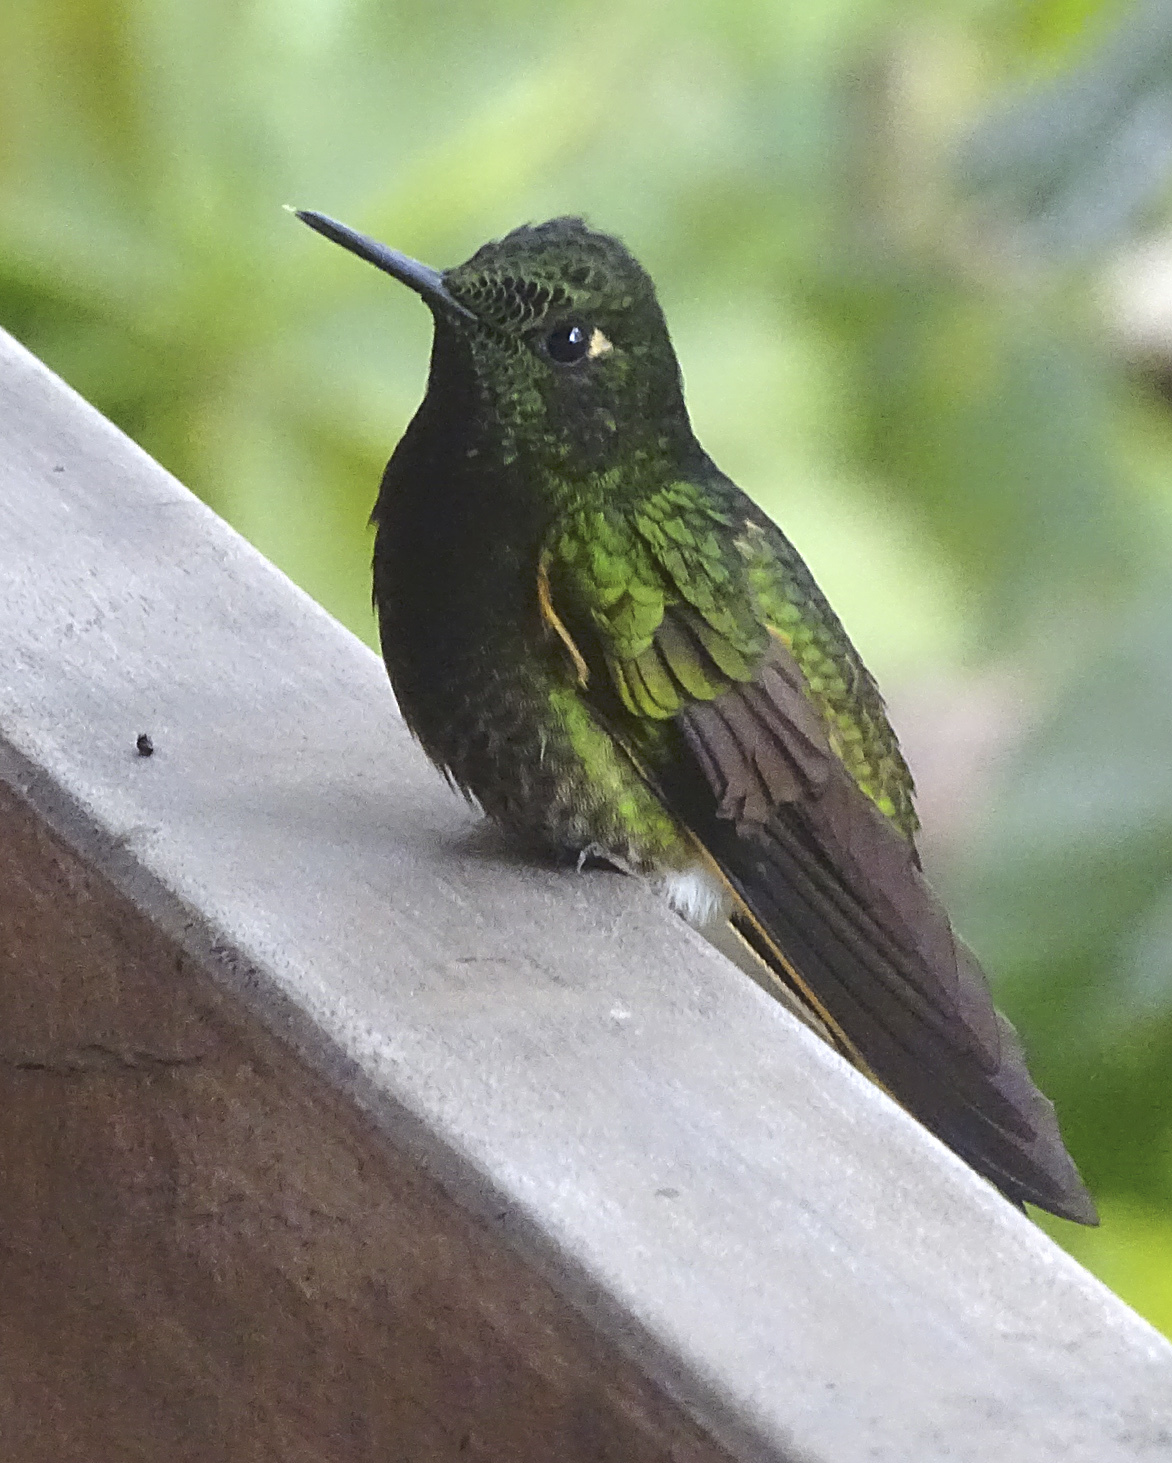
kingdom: Animalia
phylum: Chordata
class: Aves
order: Apodiformes
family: Trochilidae
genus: Boissonneaua
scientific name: Boissonneaua flavescens
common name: Buff-tailed coronet
